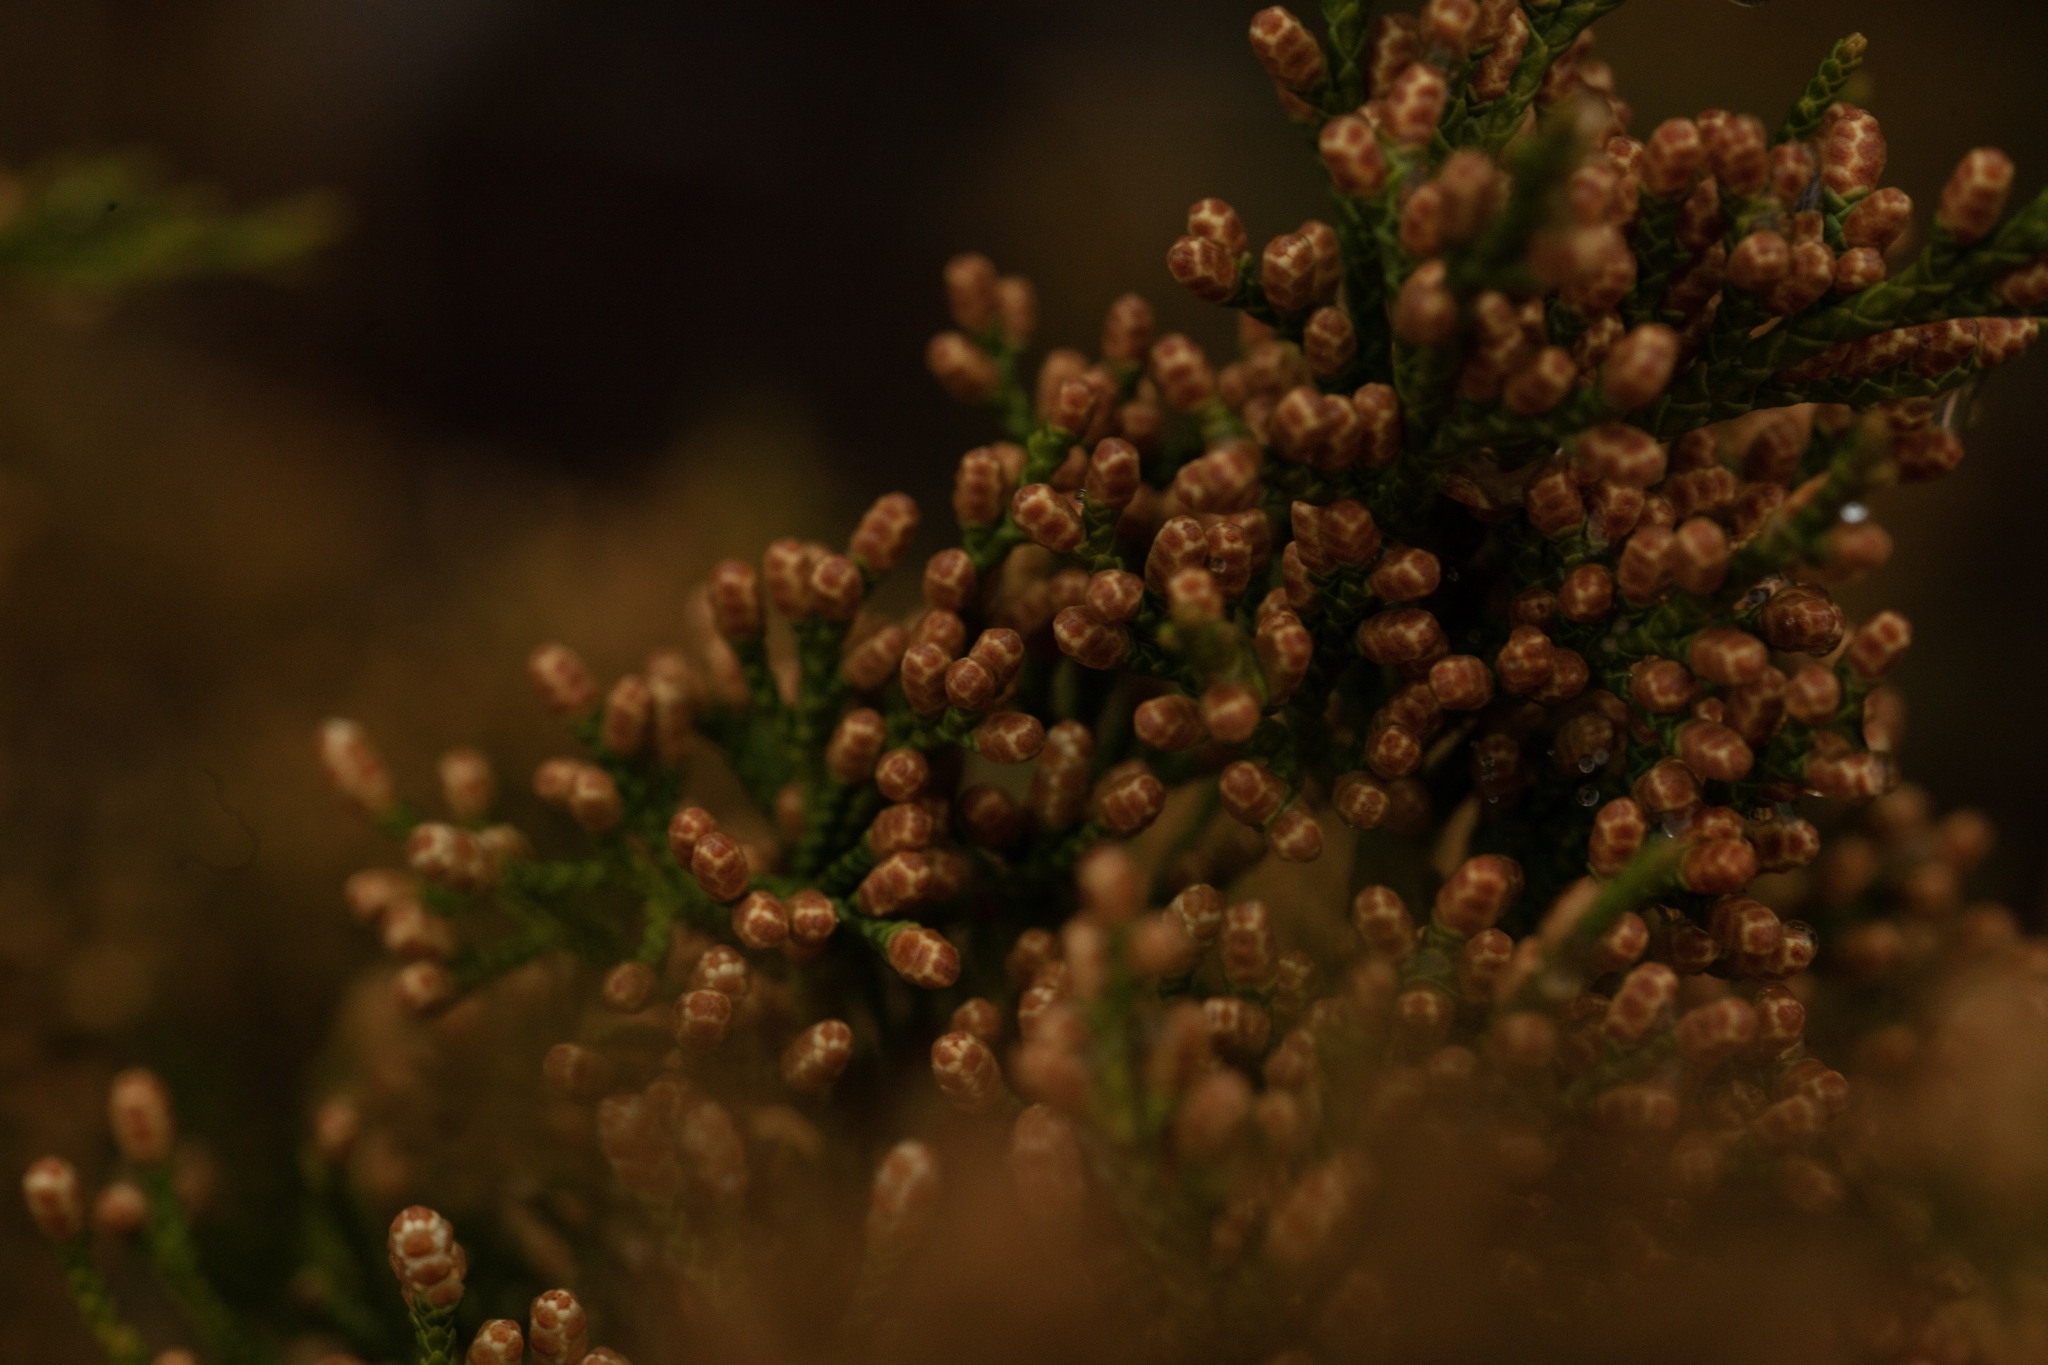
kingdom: Plantae
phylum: Tracheophyta
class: Pinopsida
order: Pinales
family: Cupressaceae
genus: Juniperus
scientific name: Juniperus virginiana
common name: Red juniper
